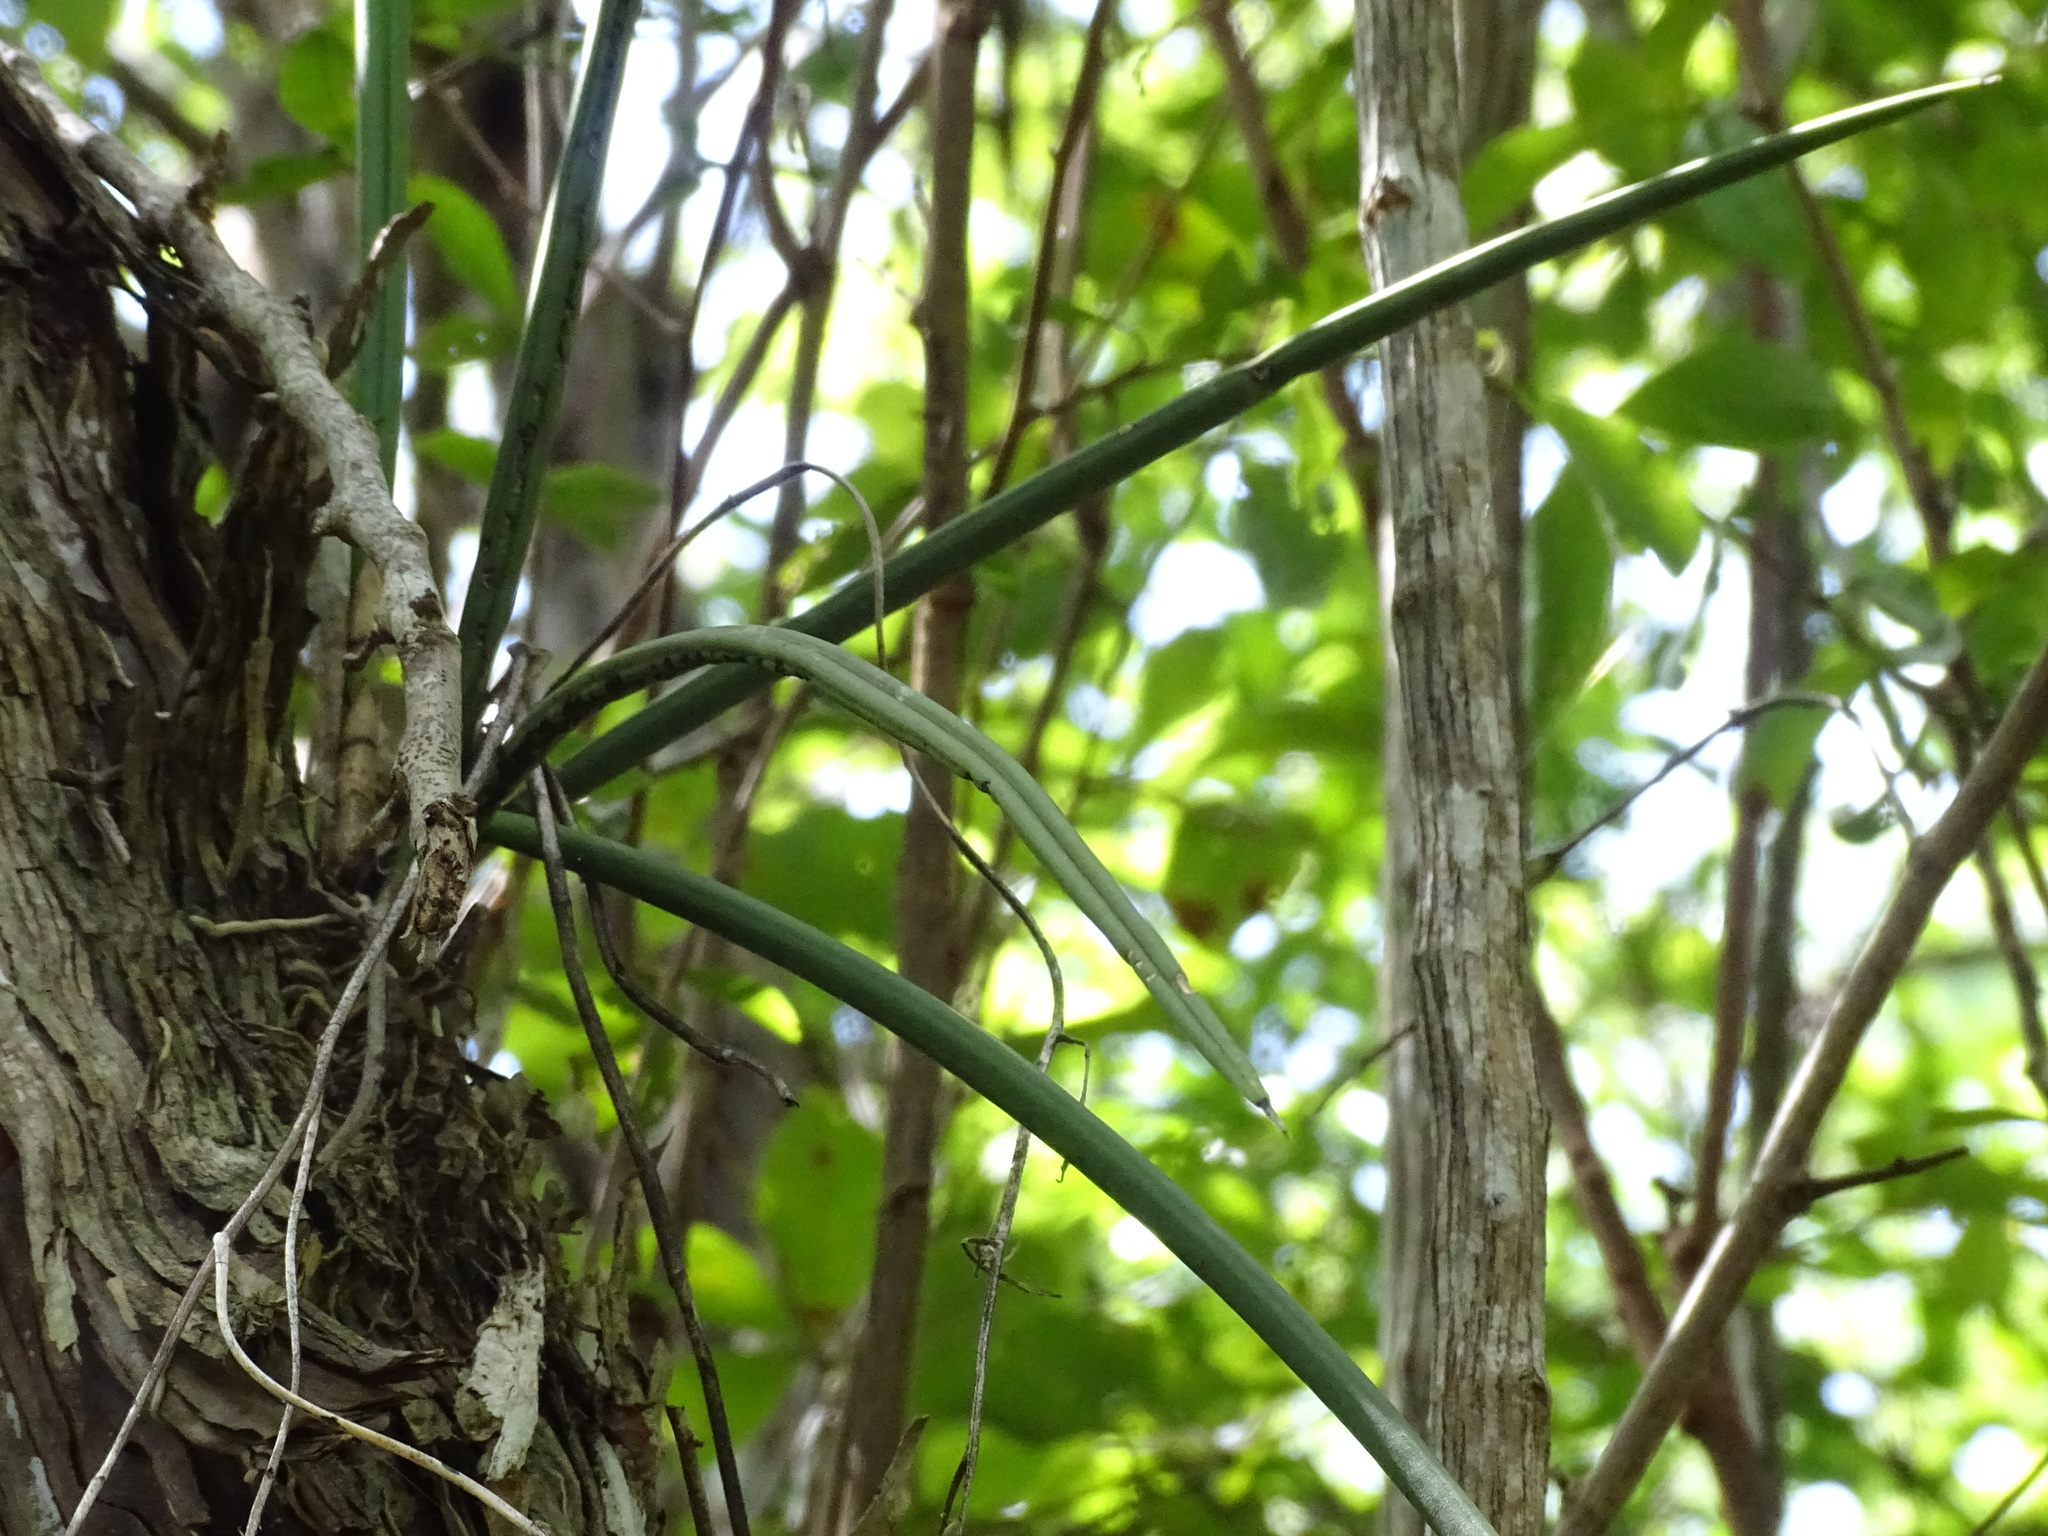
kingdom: Plantae
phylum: Tracheophyta
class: Liliopsida
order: Asparagales
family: Orchidaceae
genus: Trichocentrum
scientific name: Trichocentrum yucatanense
